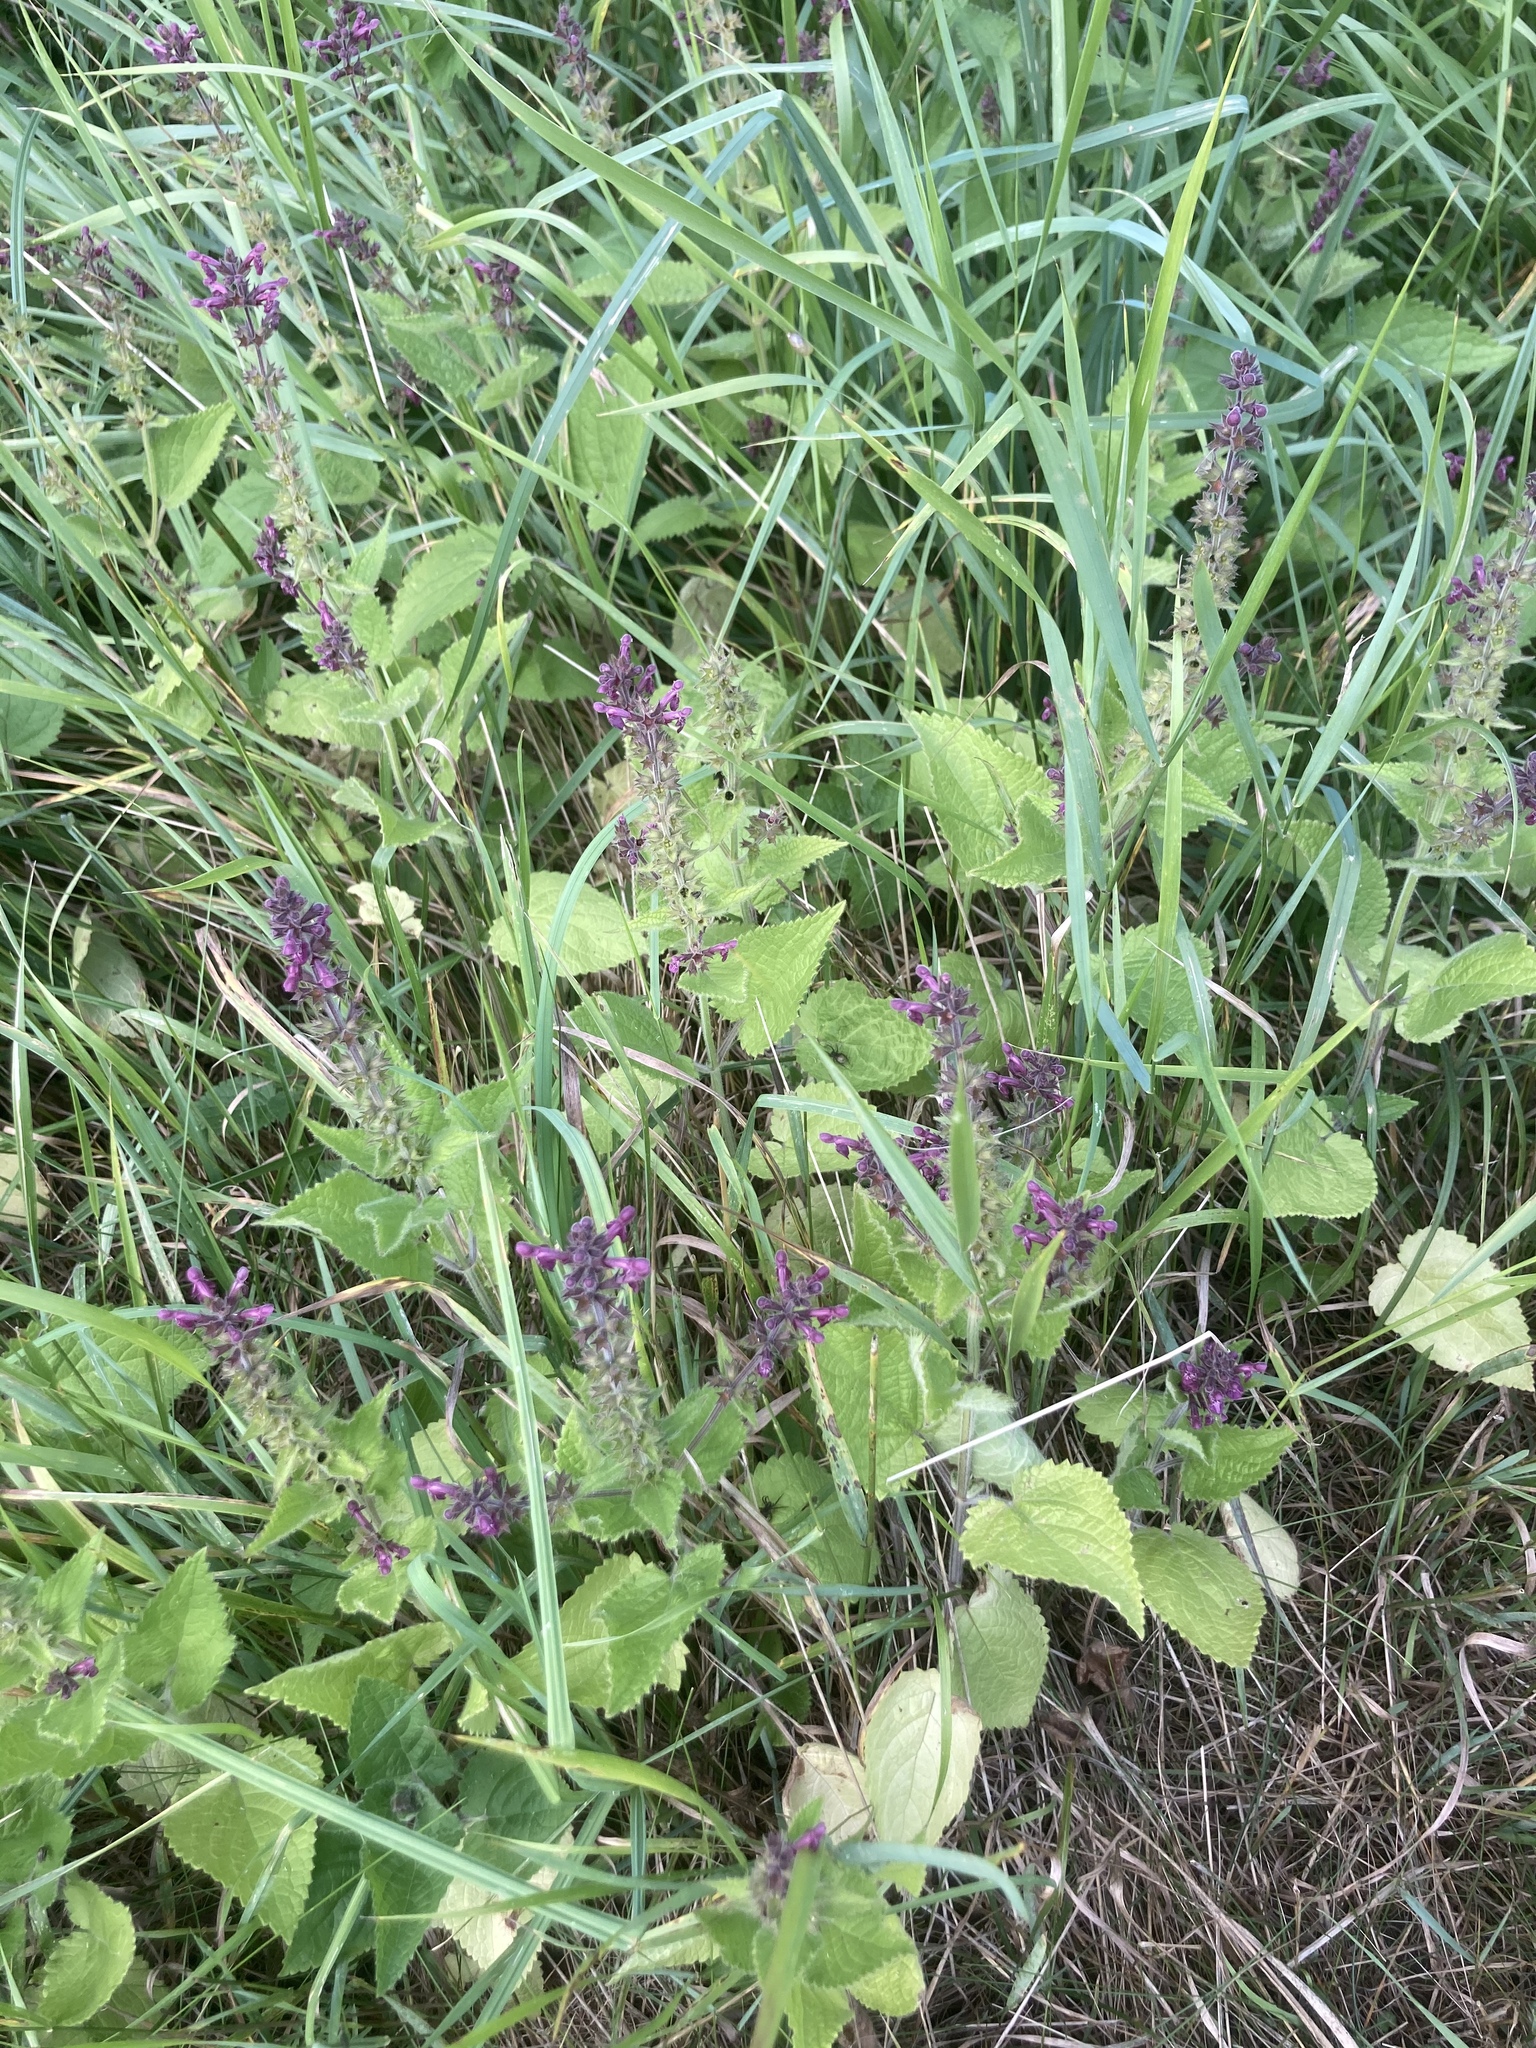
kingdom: Plantae
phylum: Tracheophyta
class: Magnoliopsida
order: Lamiales
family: Lamiaceae
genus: Stachys
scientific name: Stachys sylvatica
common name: Hedge woundwort
